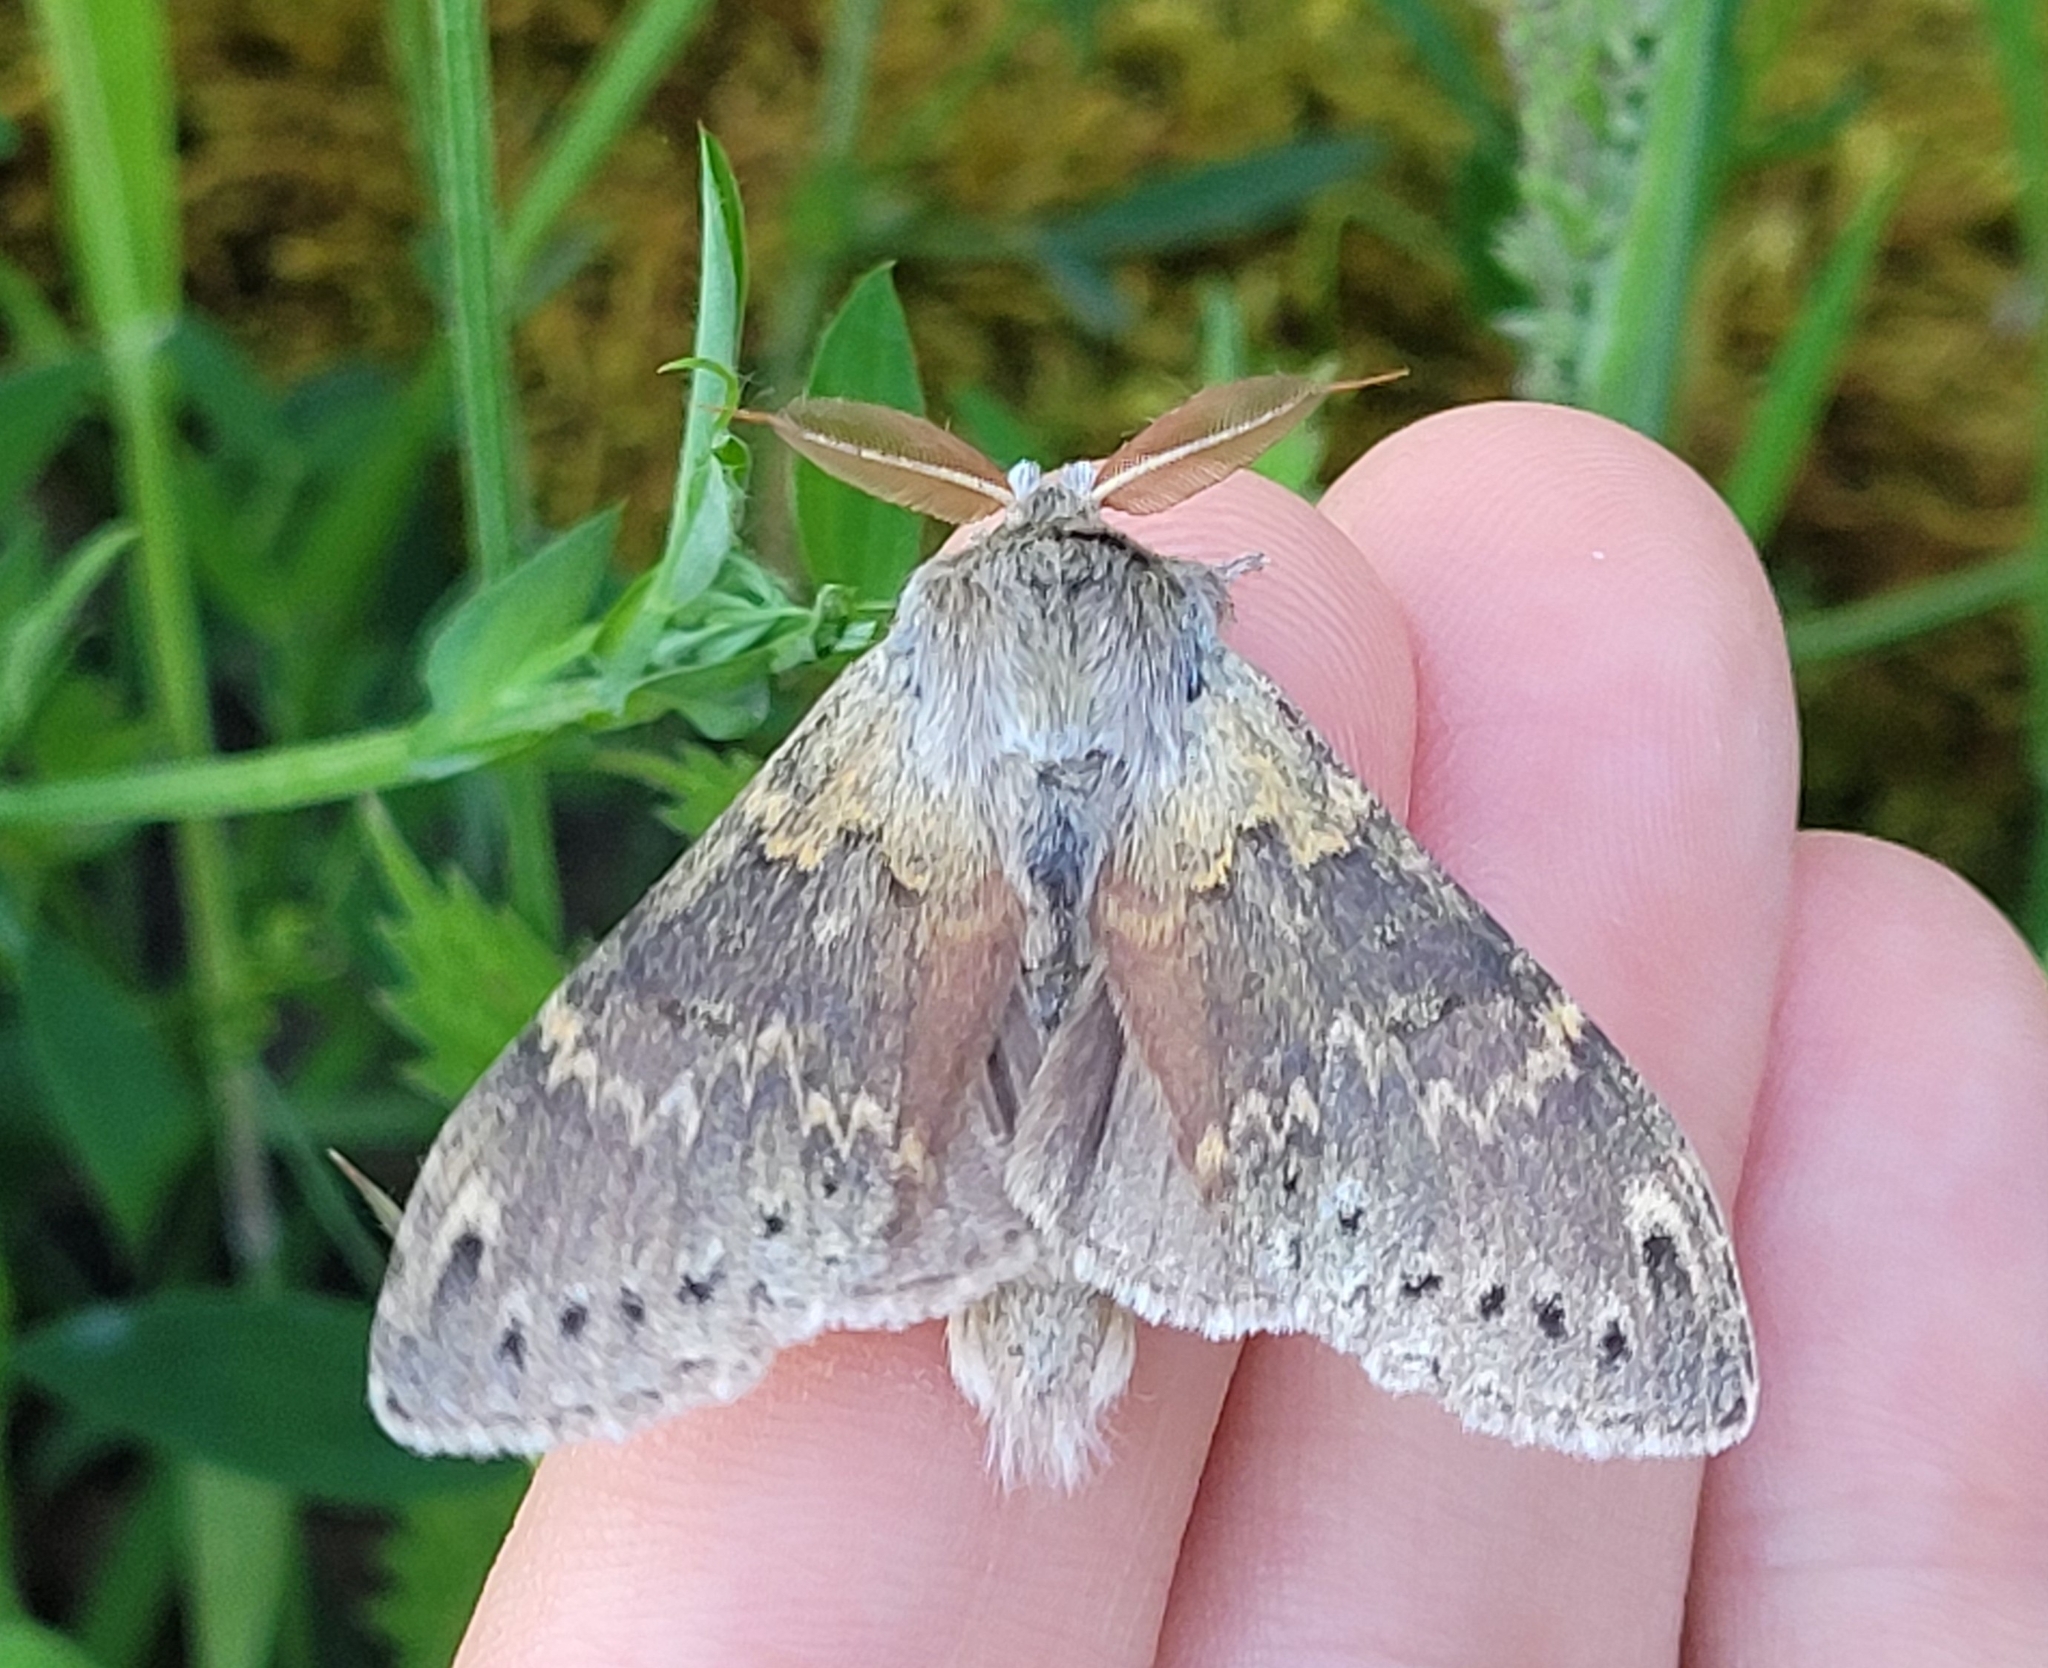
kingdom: Animalia
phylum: Arthropoda
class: Insecta
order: Lepidoptera
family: Notodontidae
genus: Stauropus
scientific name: Stauropus fagi
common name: Lobster moth
